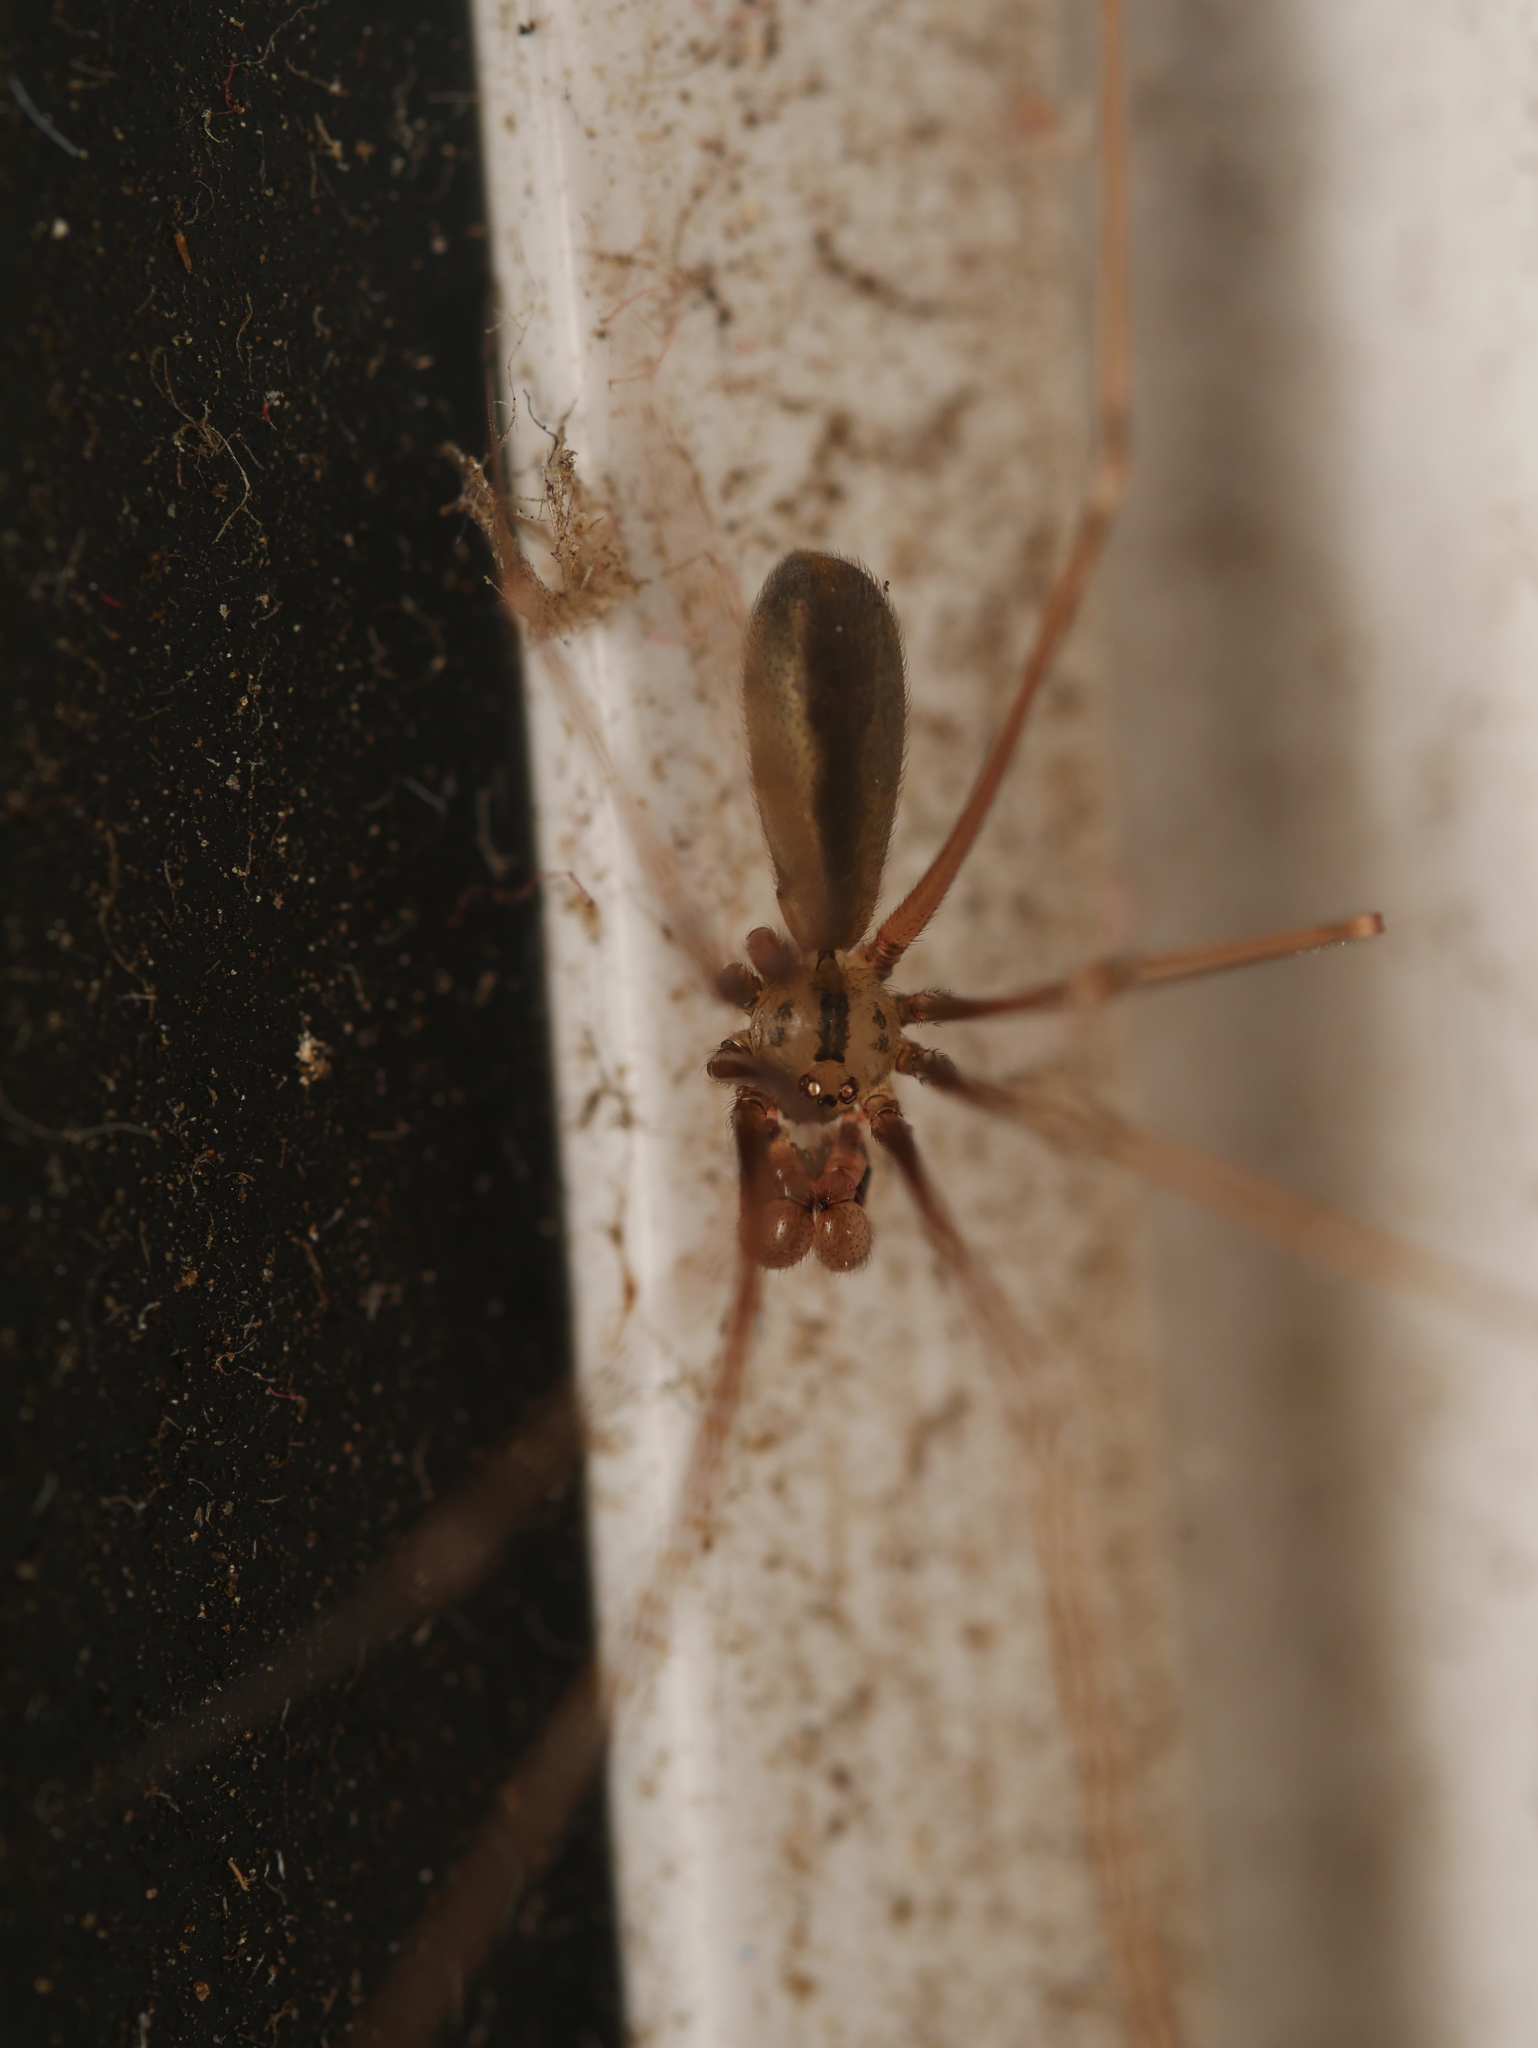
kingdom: Animalia
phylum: Arthropoda
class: Arachnida
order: Araneae
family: Pholcidae
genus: Pholcus
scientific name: Pholcus opilionoides
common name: Daddylongleg spider
